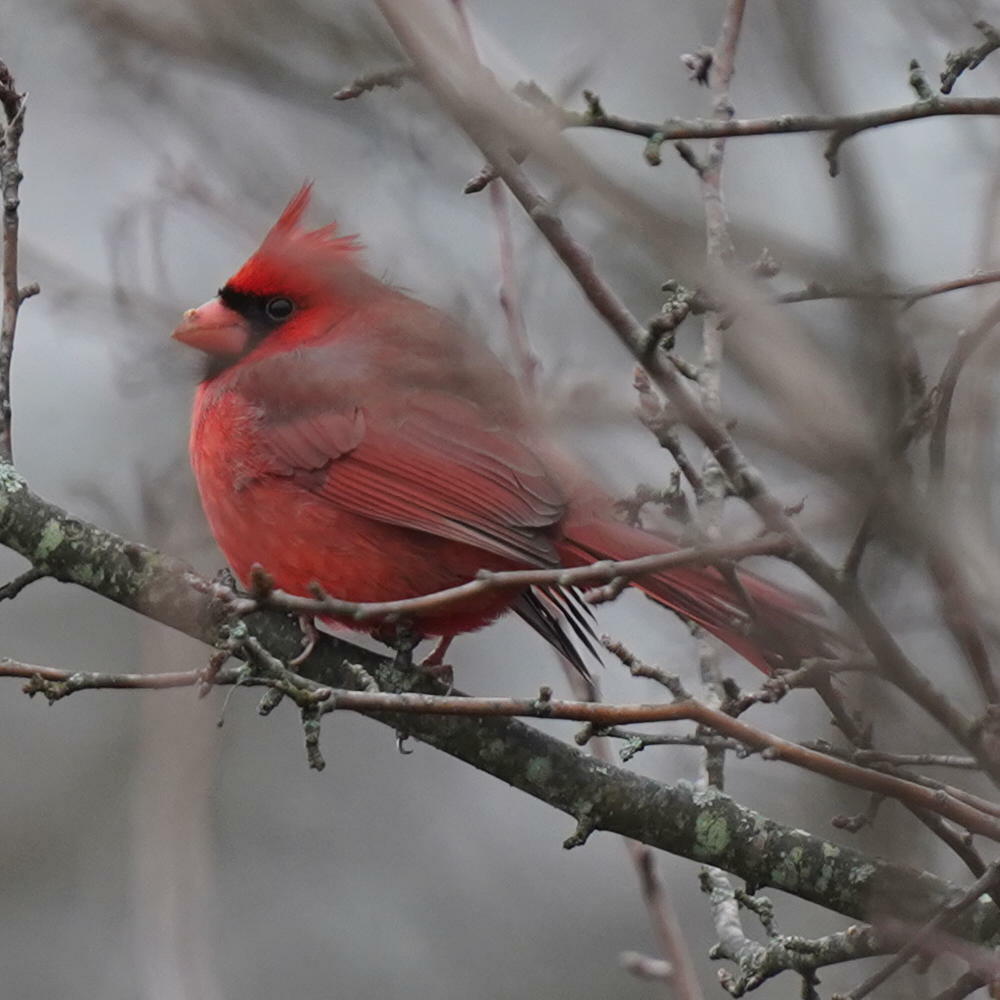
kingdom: Animalia
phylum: Chordata
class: Aves
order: Passeriformes
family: Cardinalidae
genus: Cardinalis
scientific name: Cardinalis cardinalis
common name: Northern cardinal
